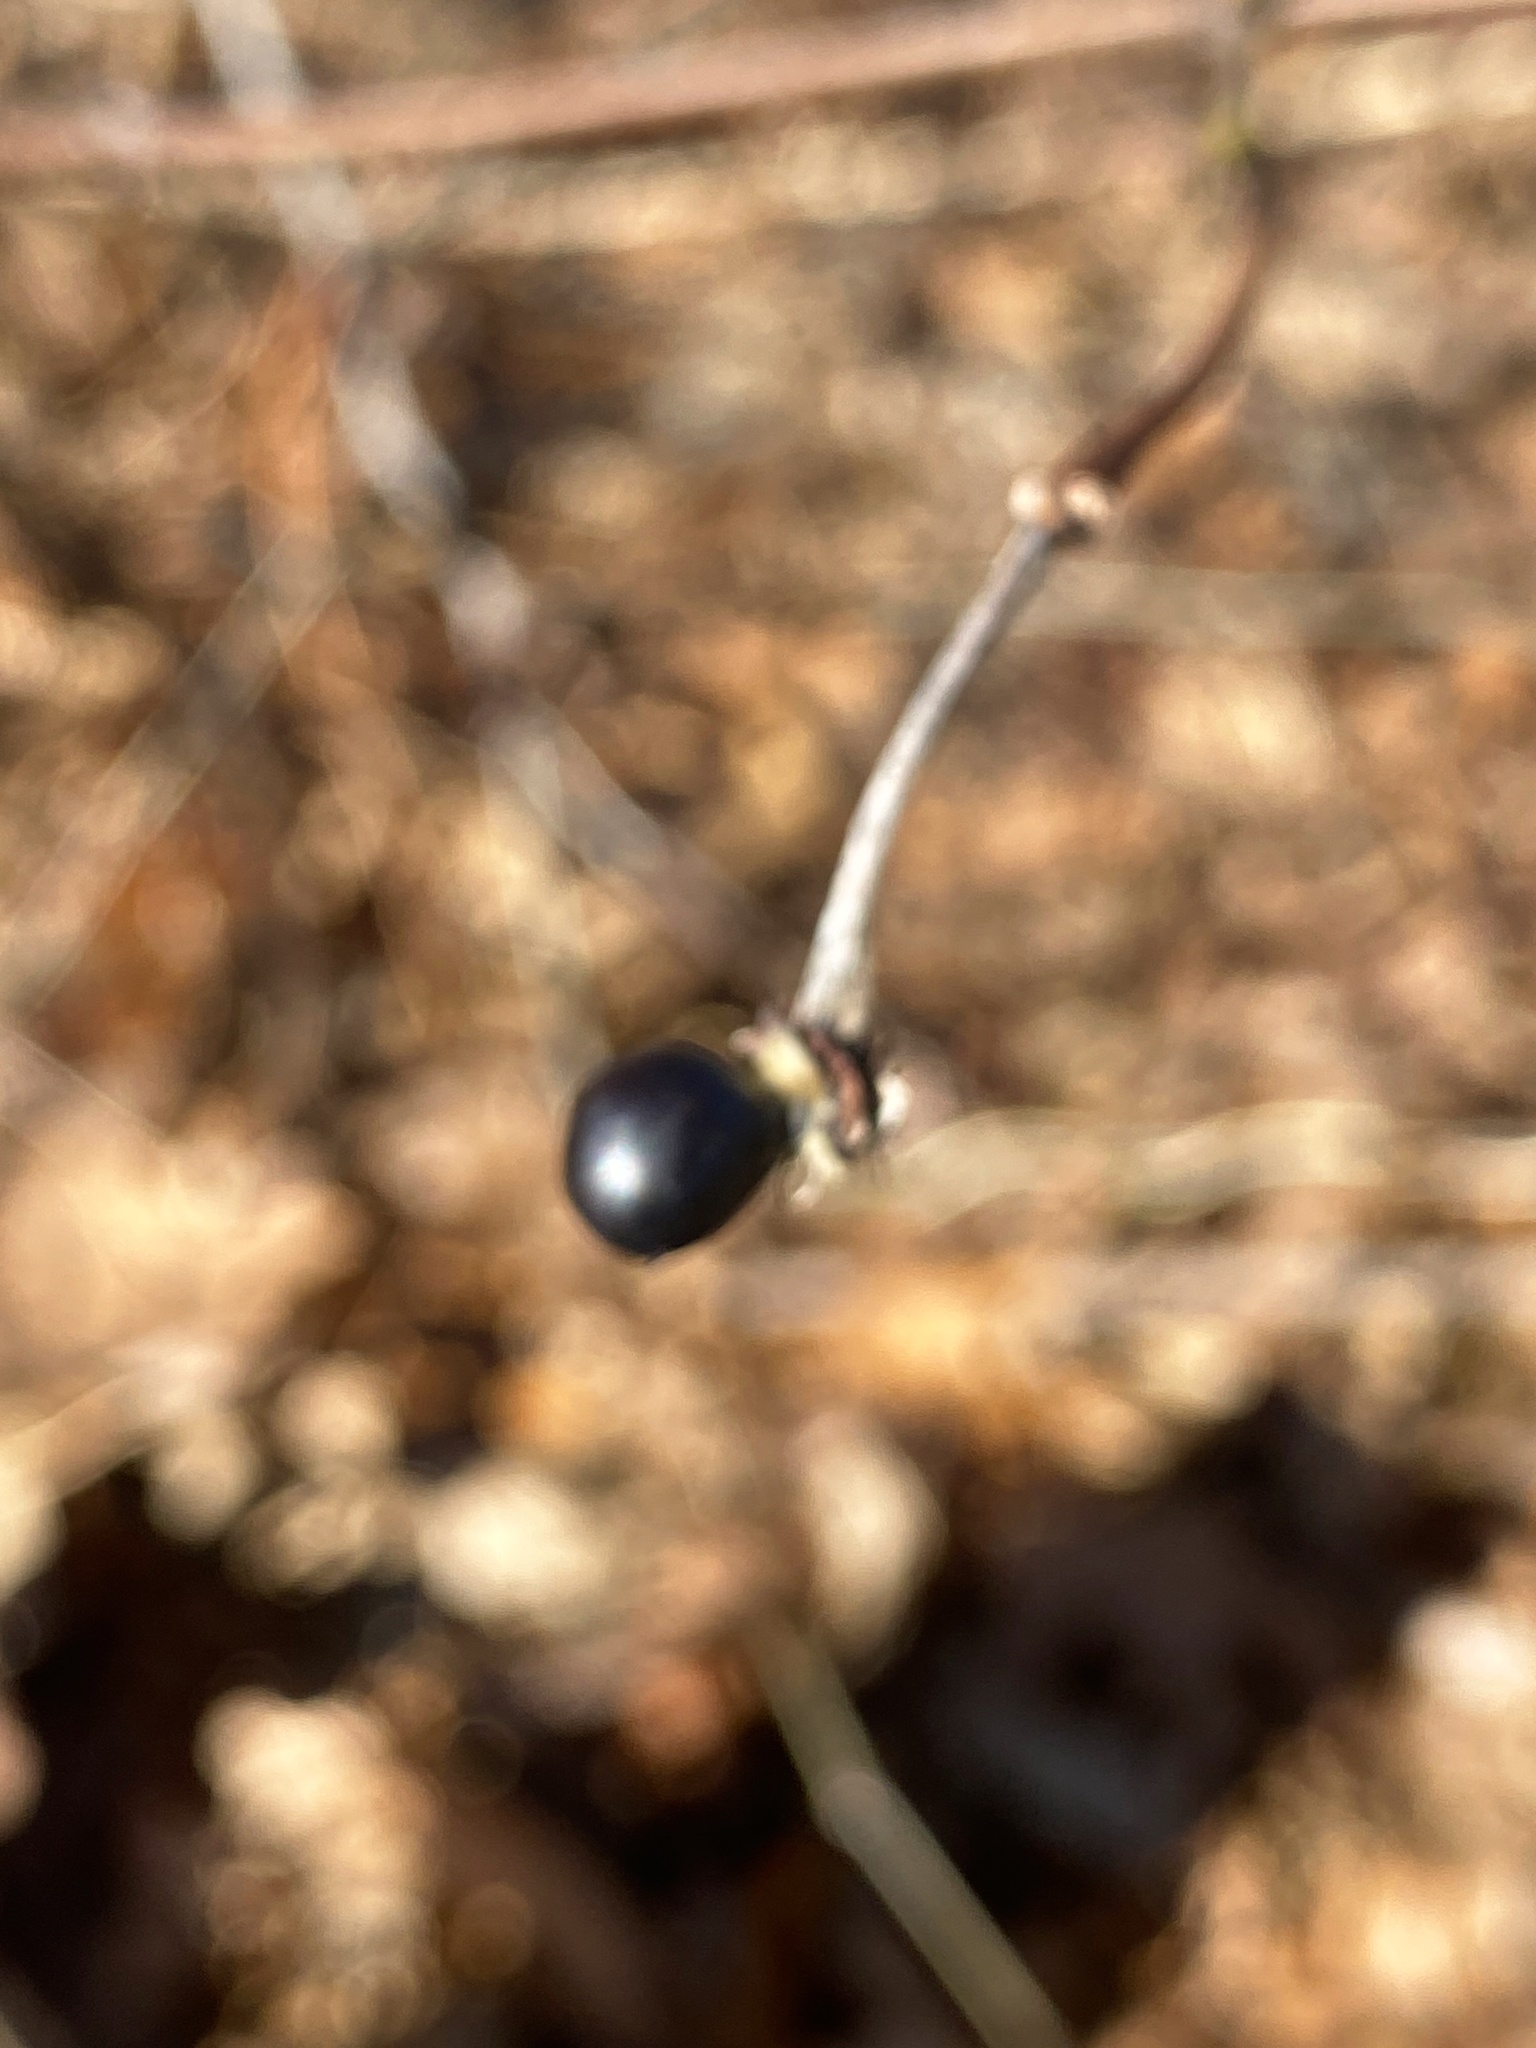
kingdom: Plantae
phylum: Tracheophyta
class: Magnoliopsida
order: Rosales
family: Rosaceae
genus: Rhodotypos
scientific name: Rhodotypos scandens
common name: Jetbead
